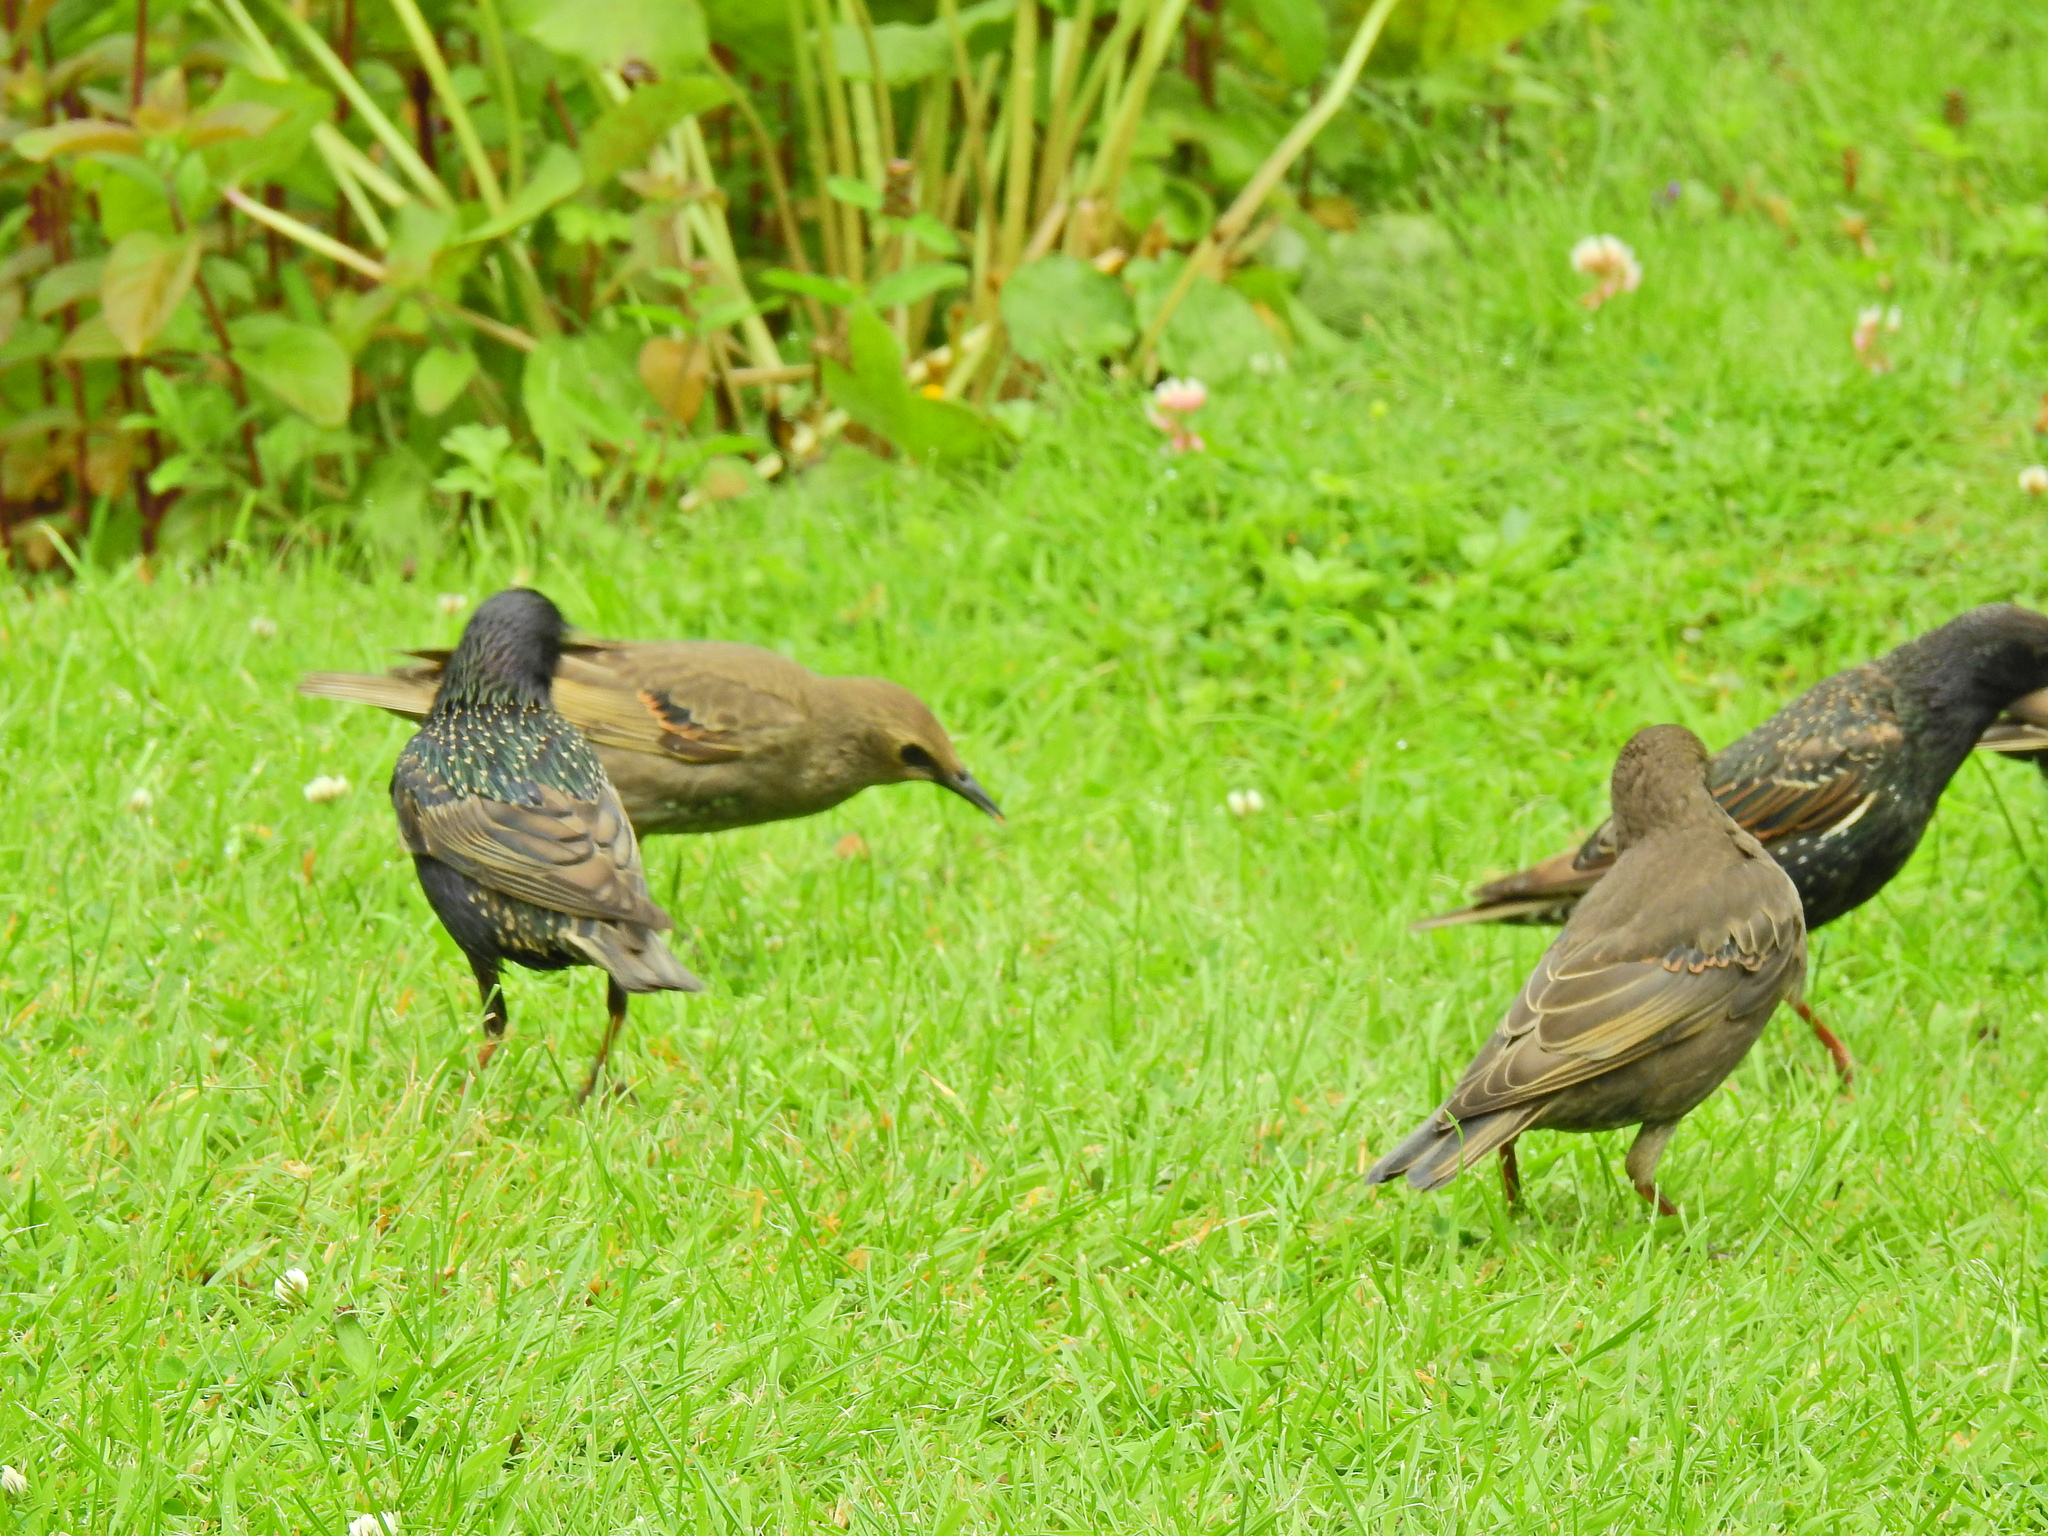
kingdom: Animalia
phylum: Chordata
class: Aves
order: Passeriformes
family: Sturnidae
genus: Sturnus
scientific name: Sturnus vulgaris
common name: Common starling
